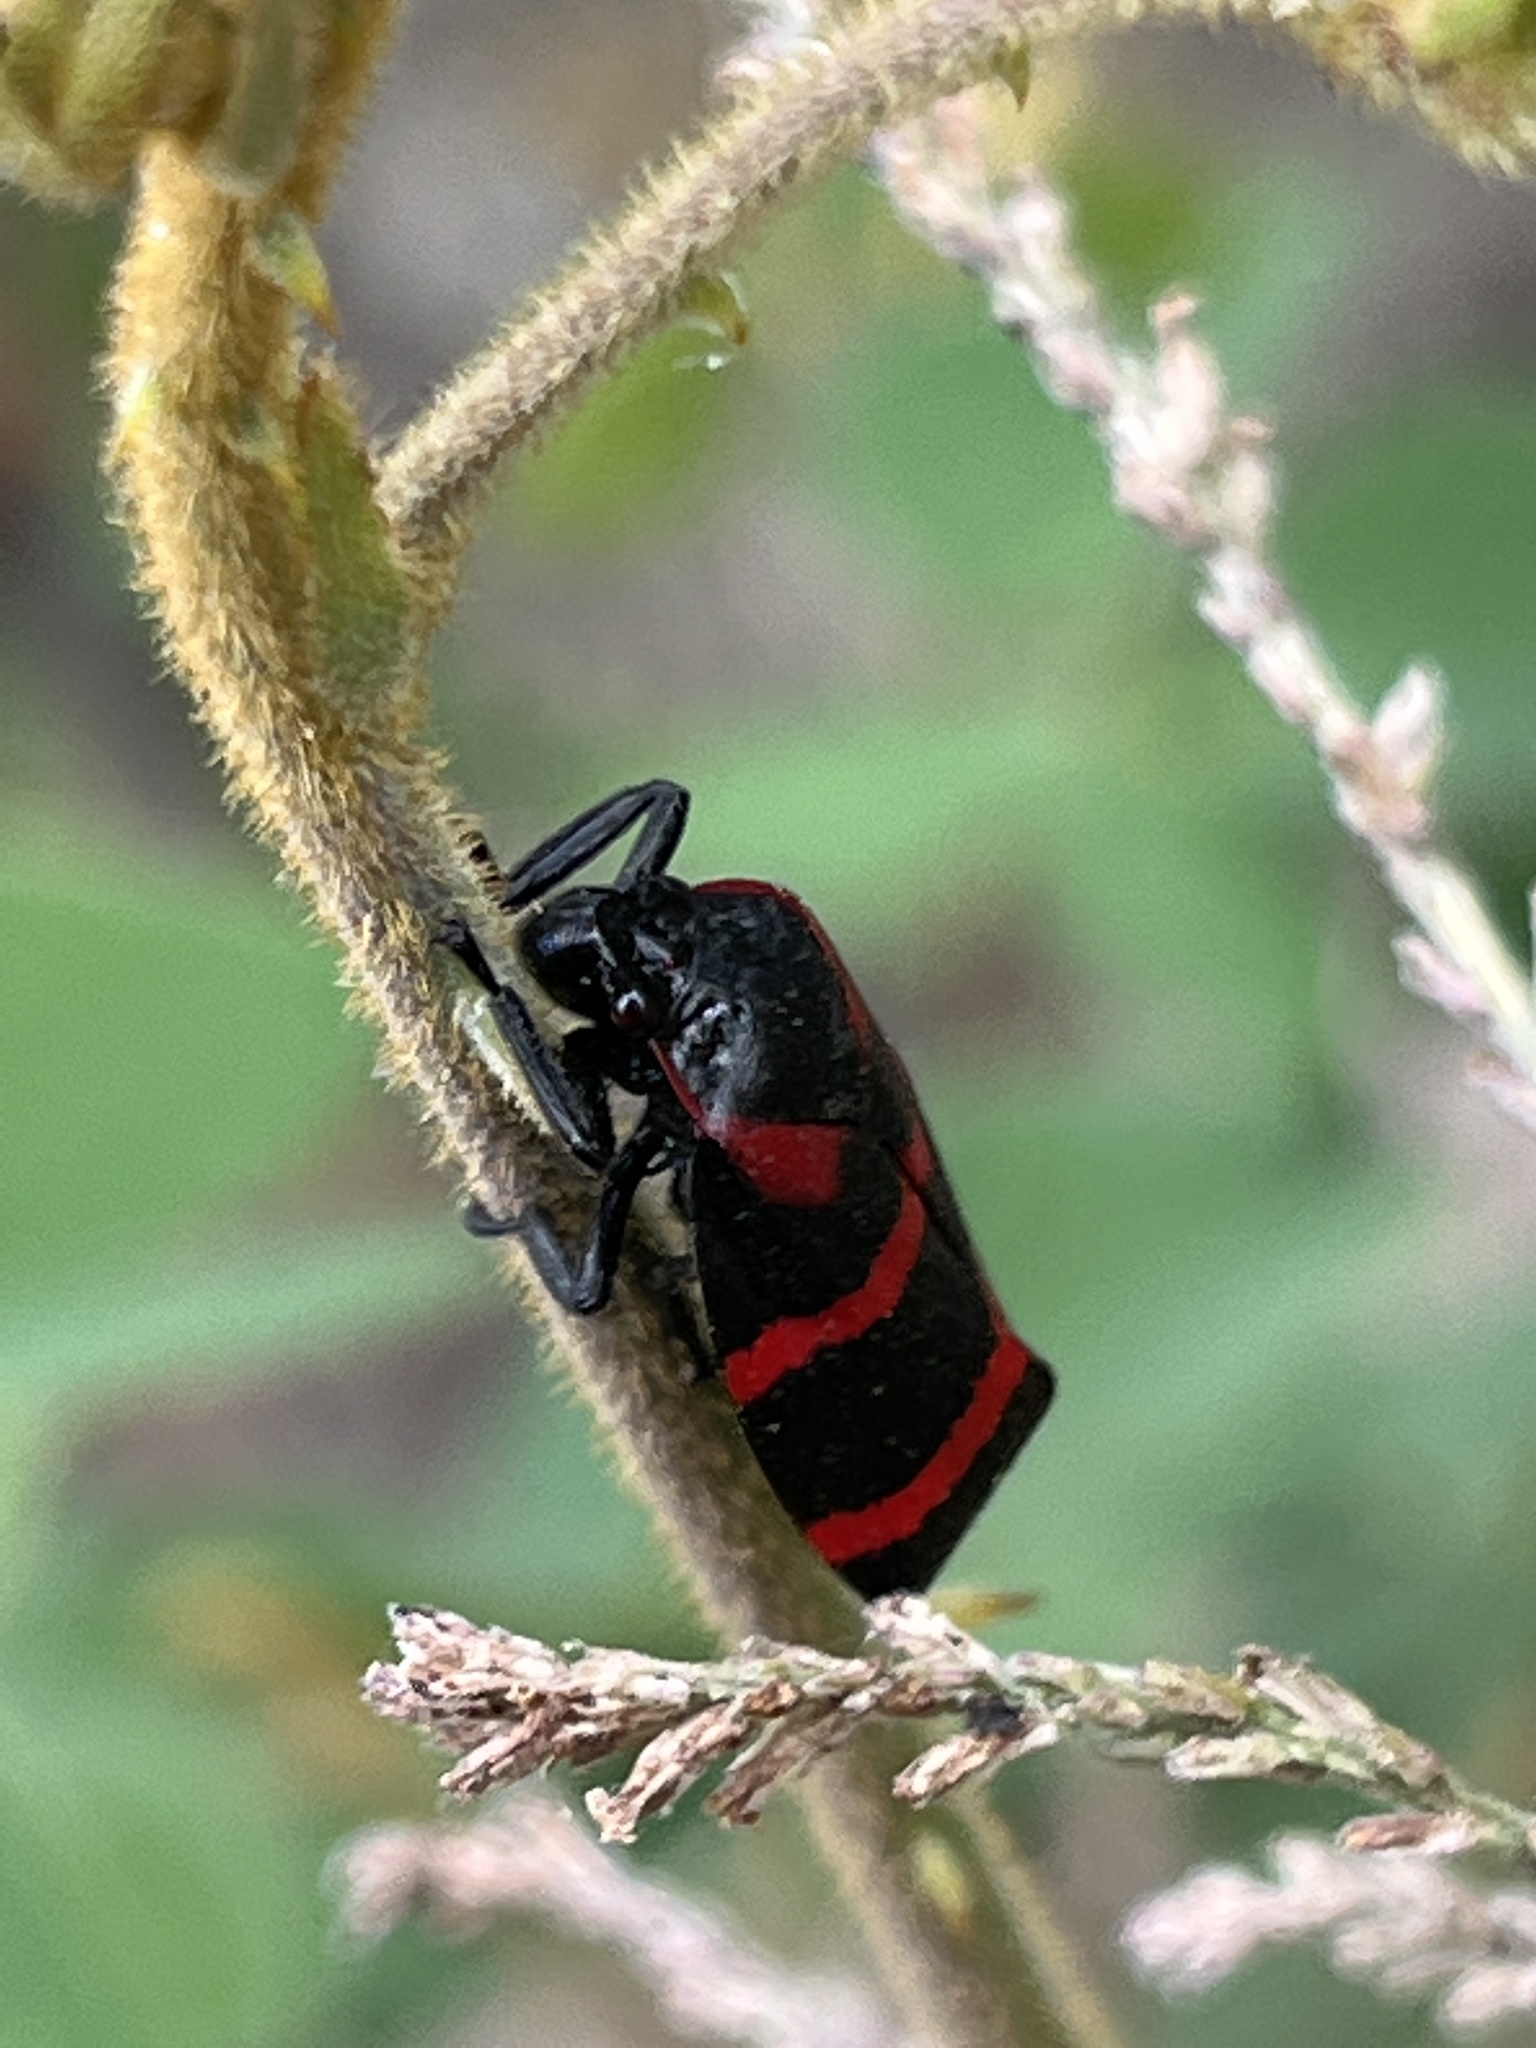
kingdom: Animalia
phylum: Arthropoda
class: Insecta
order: Hemiptera
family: Cercopidae
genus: Huaina
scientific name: Huaina inca
